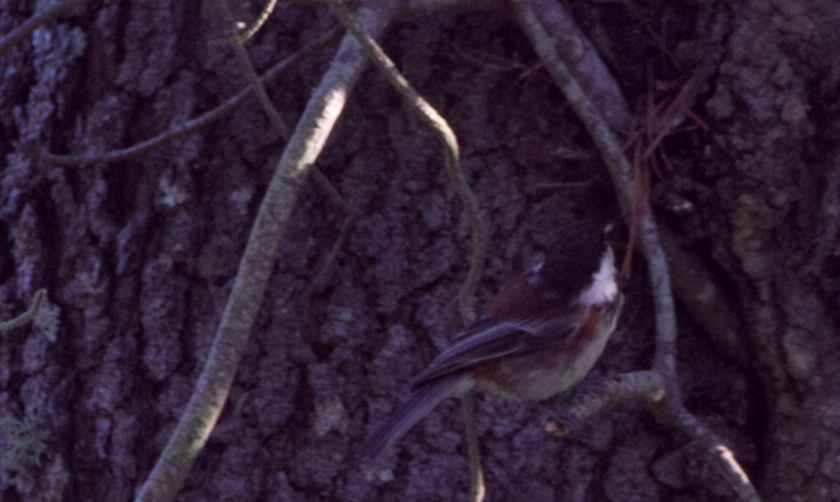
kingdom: Animalia
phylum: Chordata
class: Aves
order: Passeriformes
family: Paridae
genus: Poecile
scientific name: Poecile rufescens
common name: Chestnut-backed chickadee
